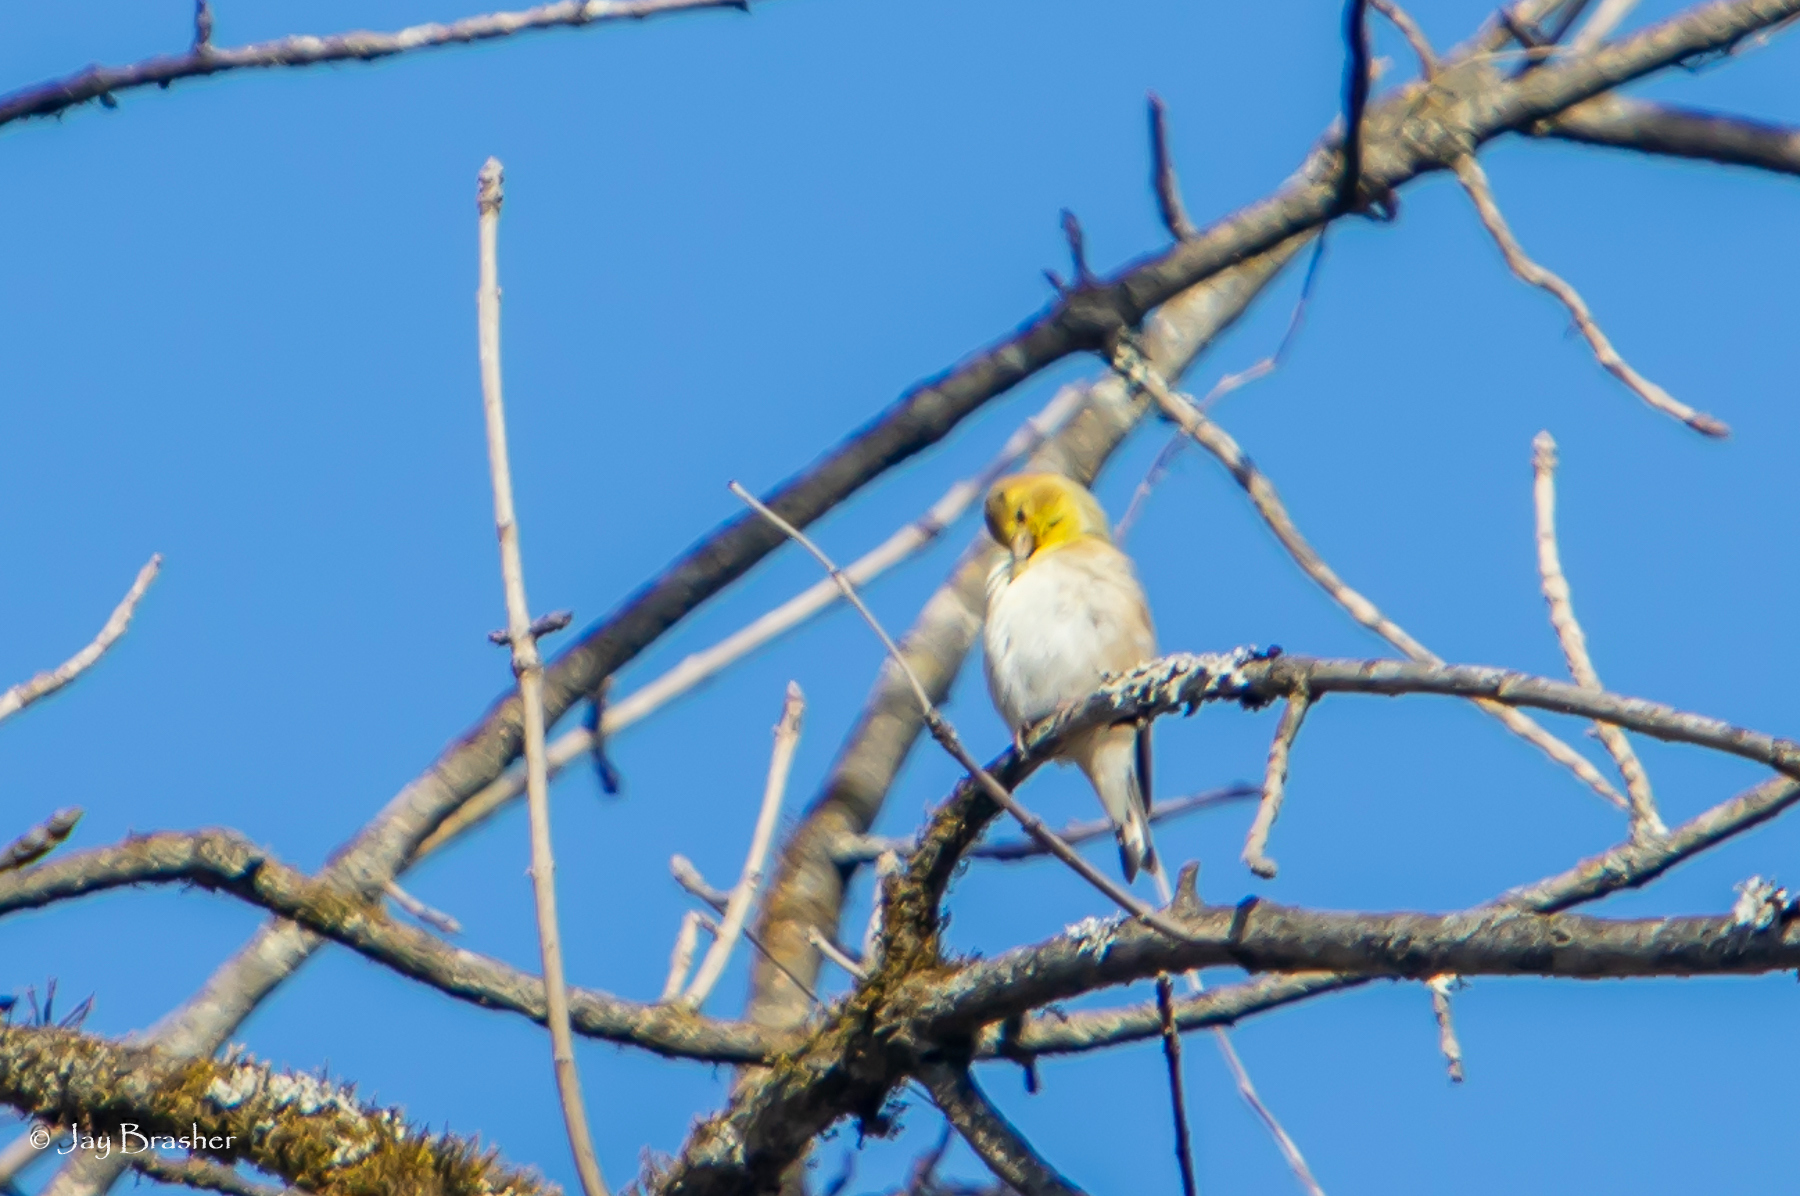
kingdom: Animalia
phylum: Chordata
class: Aves
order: Passeriformes
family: Fringillidae
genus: Spinus
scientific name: Spinus tristis
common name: American goldfinch
